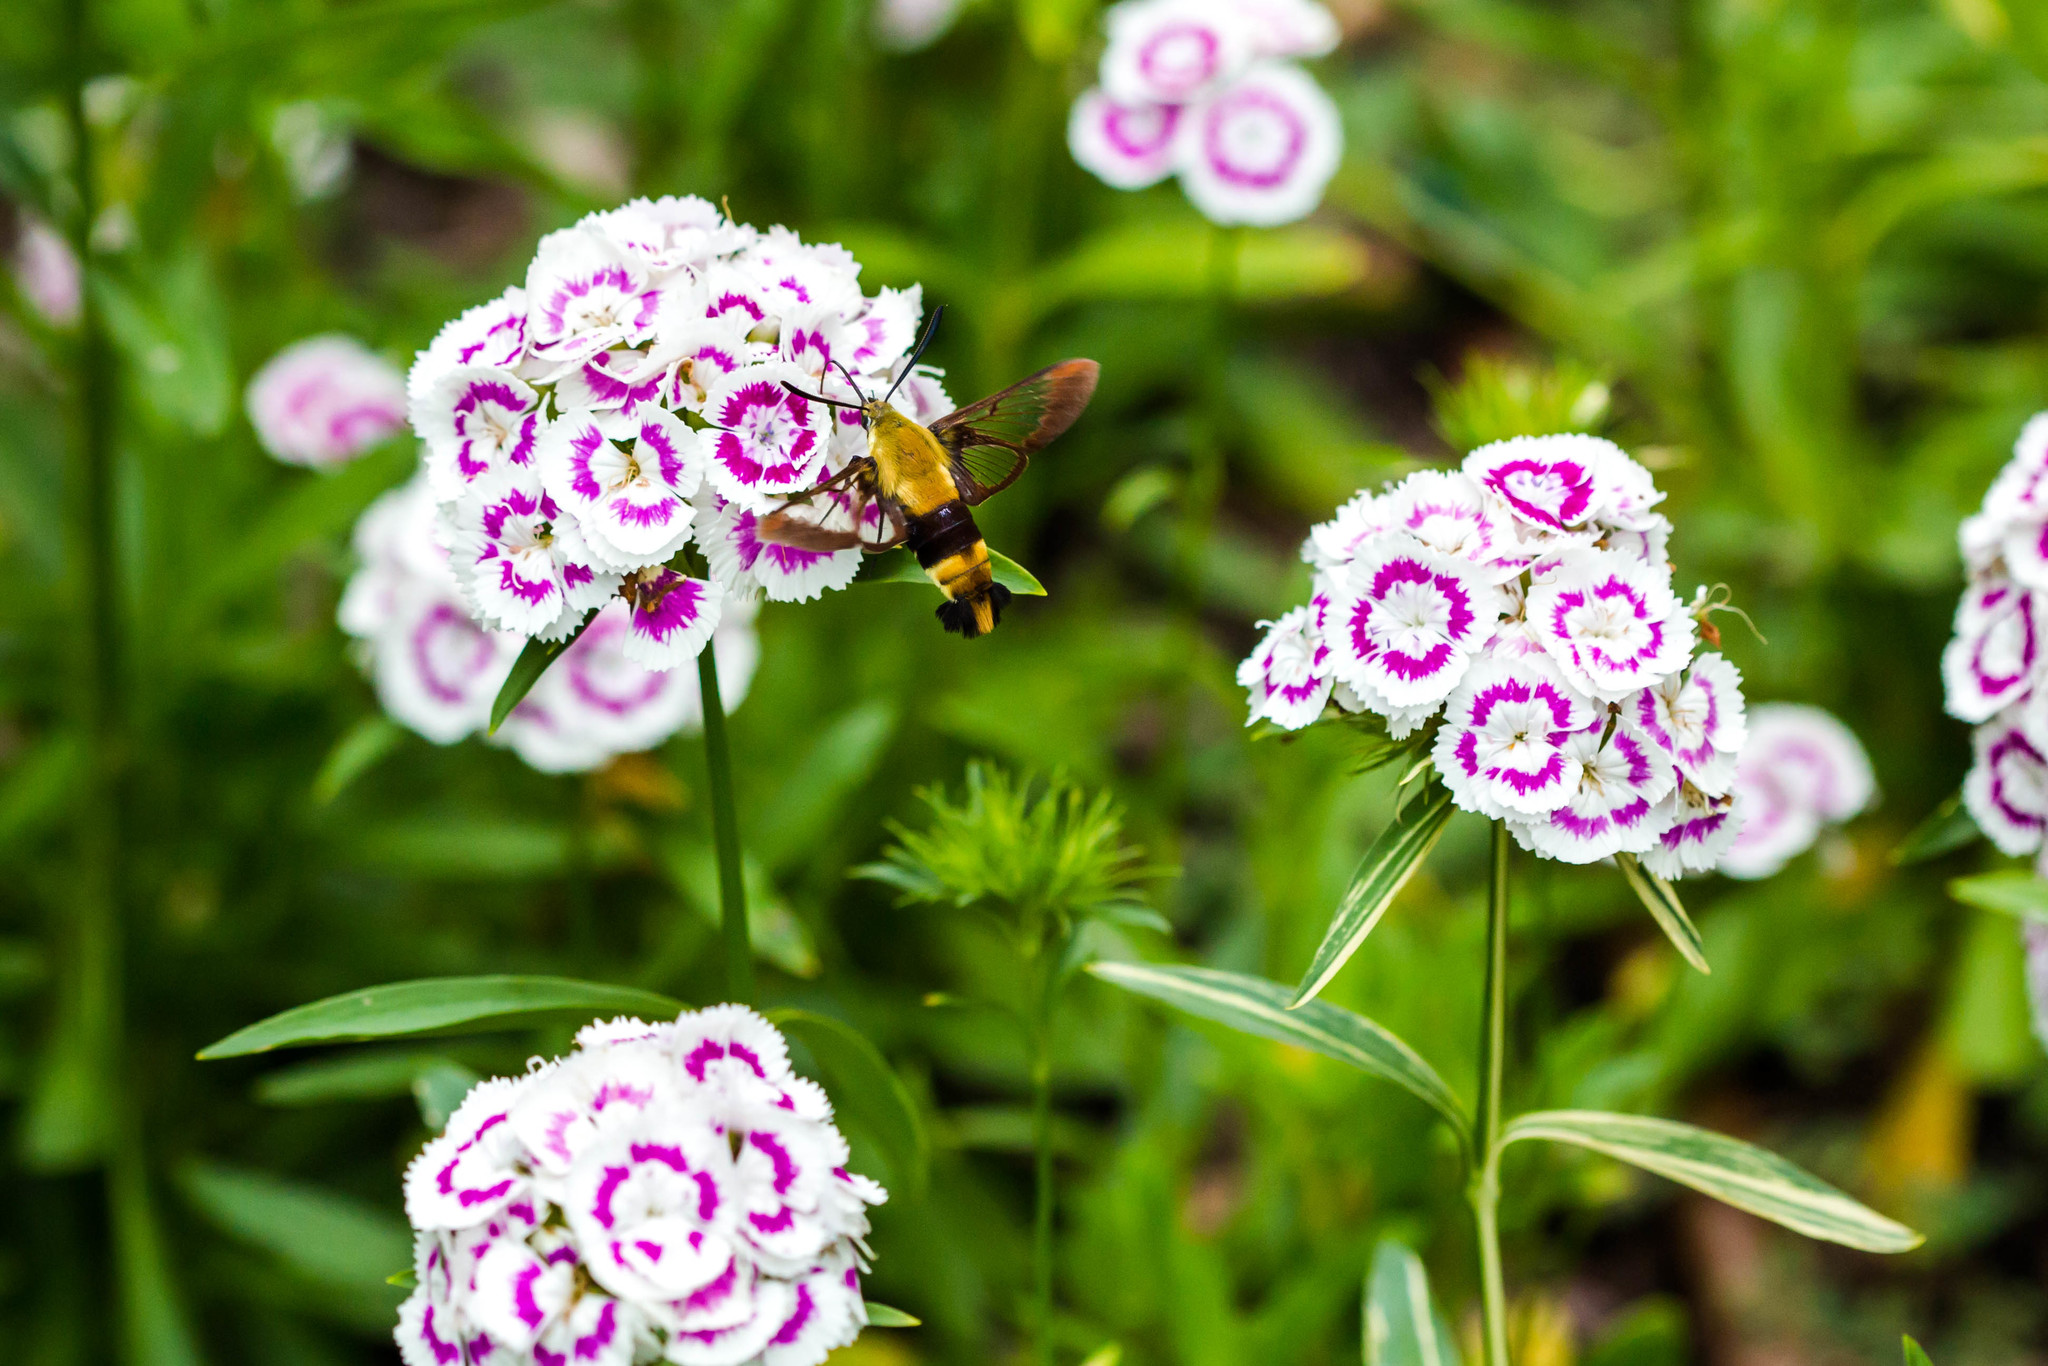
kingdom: Animalia
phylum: Arthropoda
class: Insecta
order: Lepidoptera
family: Sphingidae
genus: Hemaris
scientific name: Hemaris diffinis
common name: Bumblebee moth
